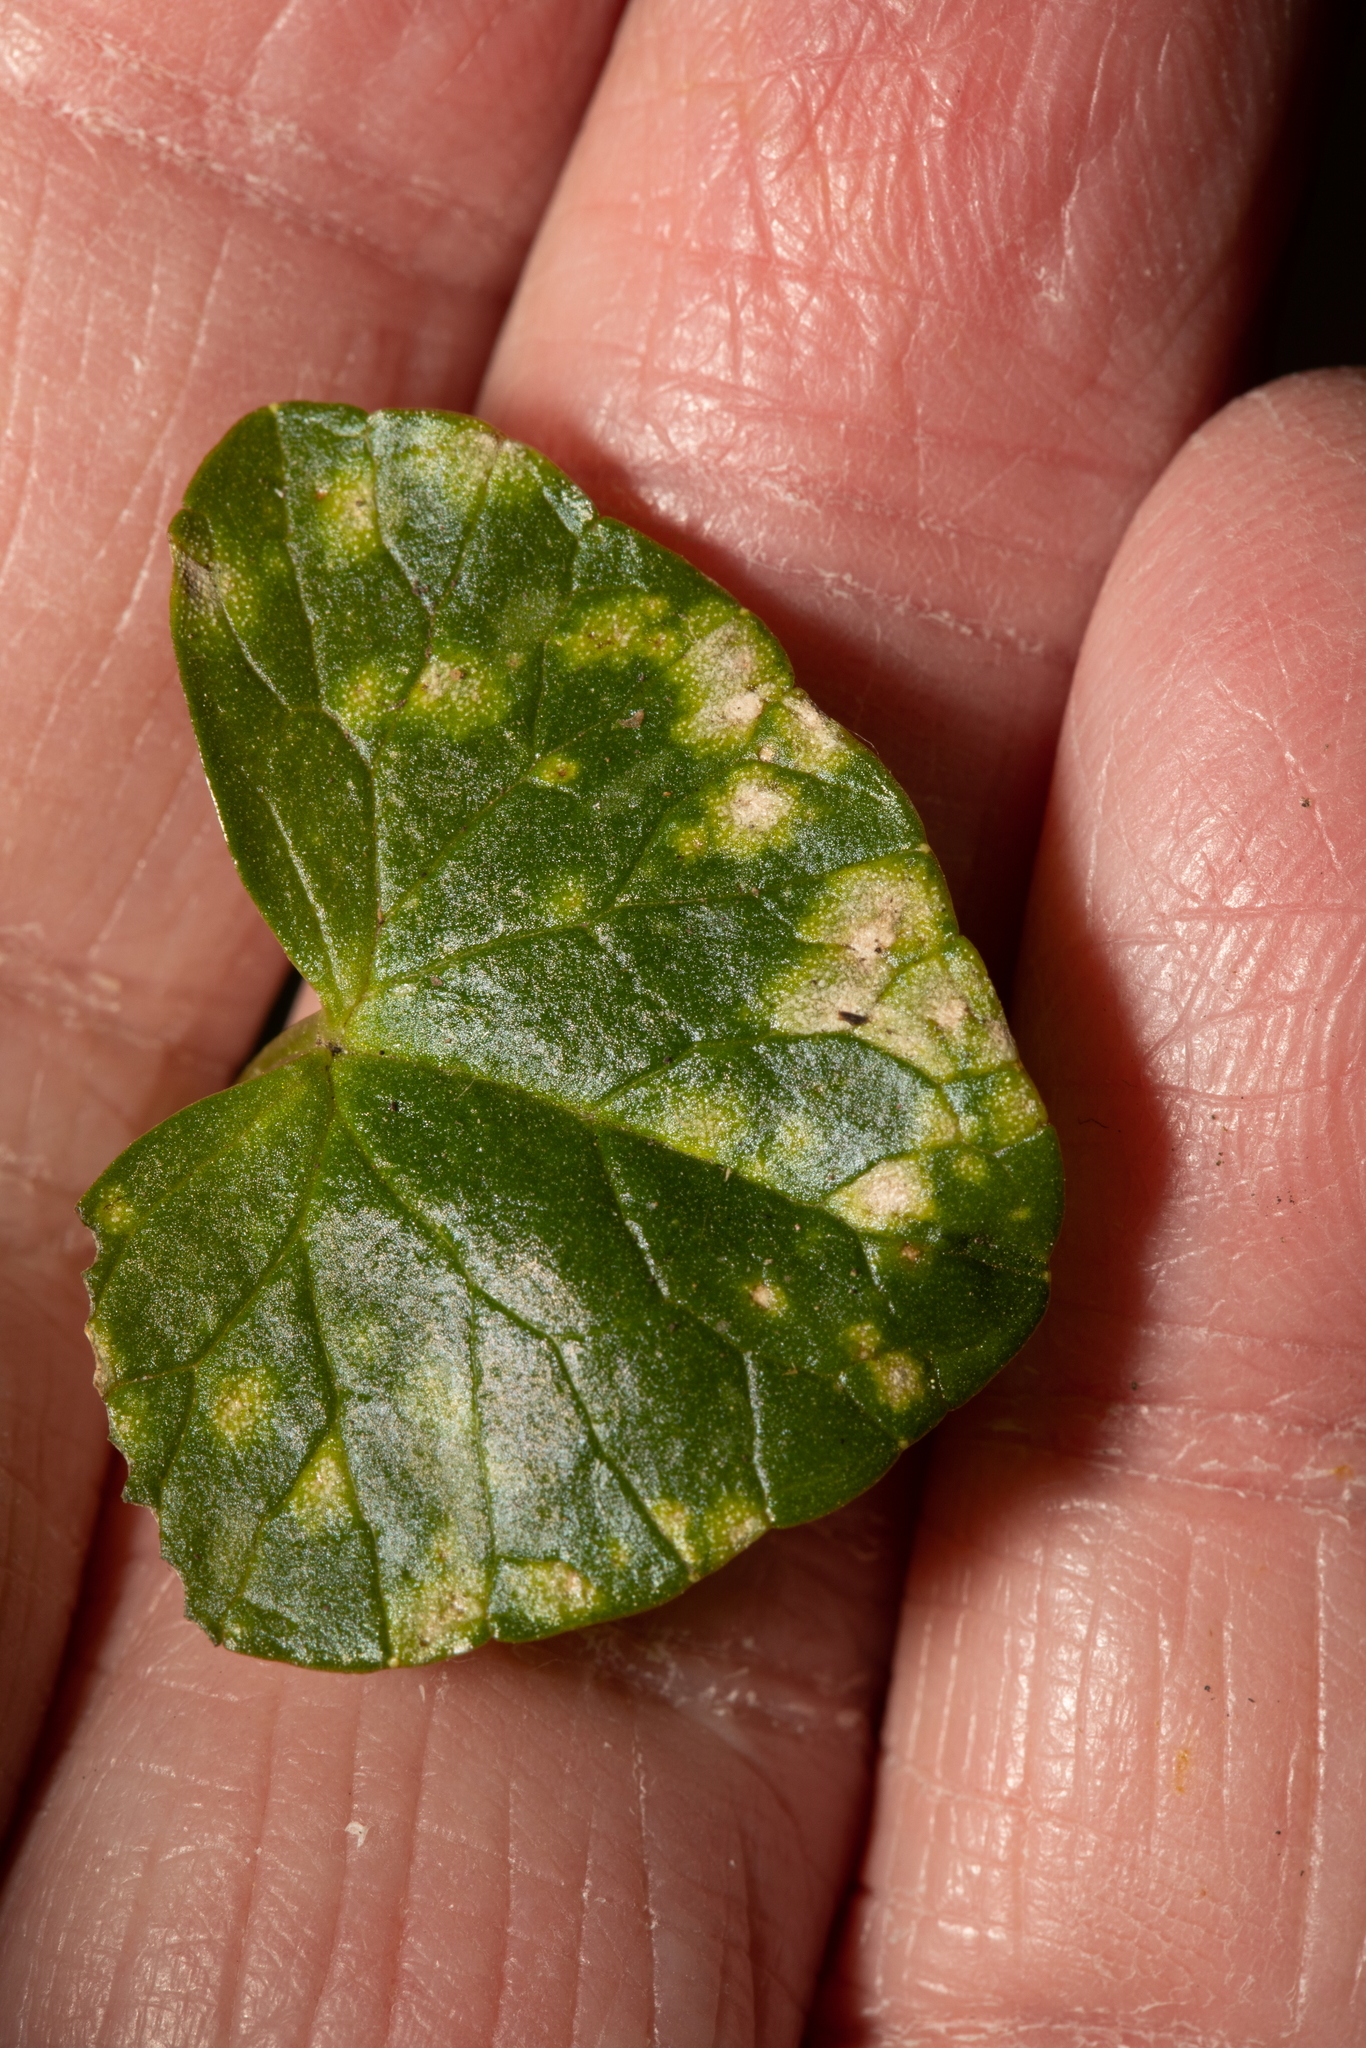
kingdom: Fungi
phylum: Basidiomycota
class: Exobasidiomycetes
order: Entylomatales
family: Entylomataceae
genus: Entyloma
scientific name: Entyloma ficariae
